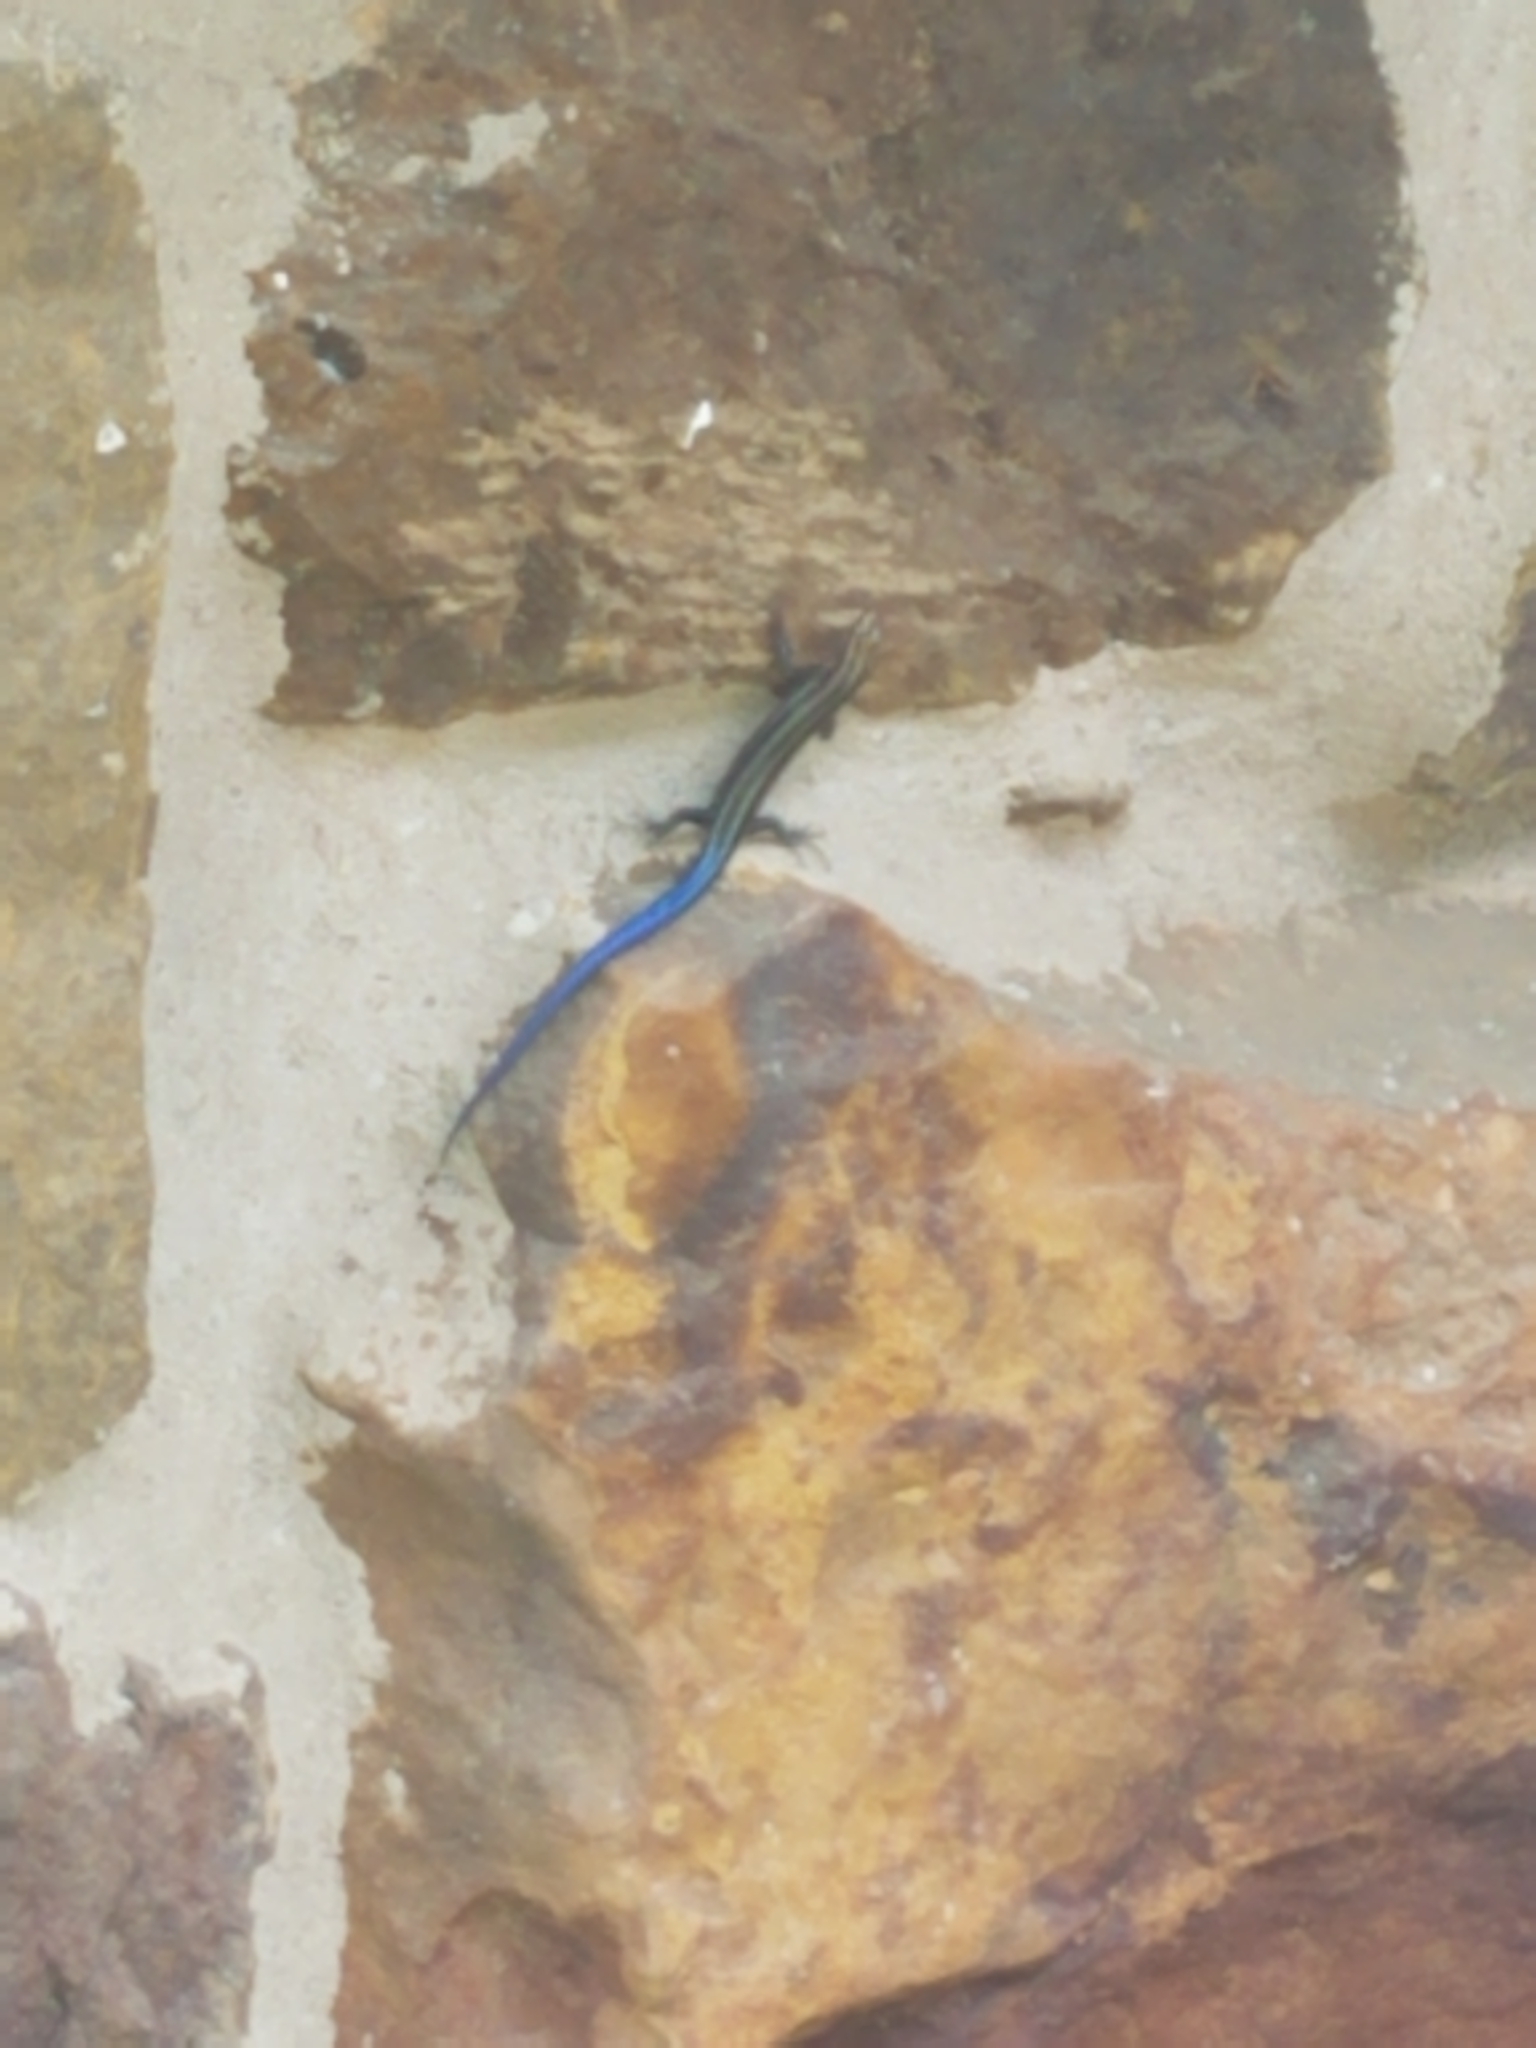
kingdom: Animalia
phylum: Chordata
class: Squamata
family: Scincidae
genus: Plestiodon
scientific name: Plestiodon
